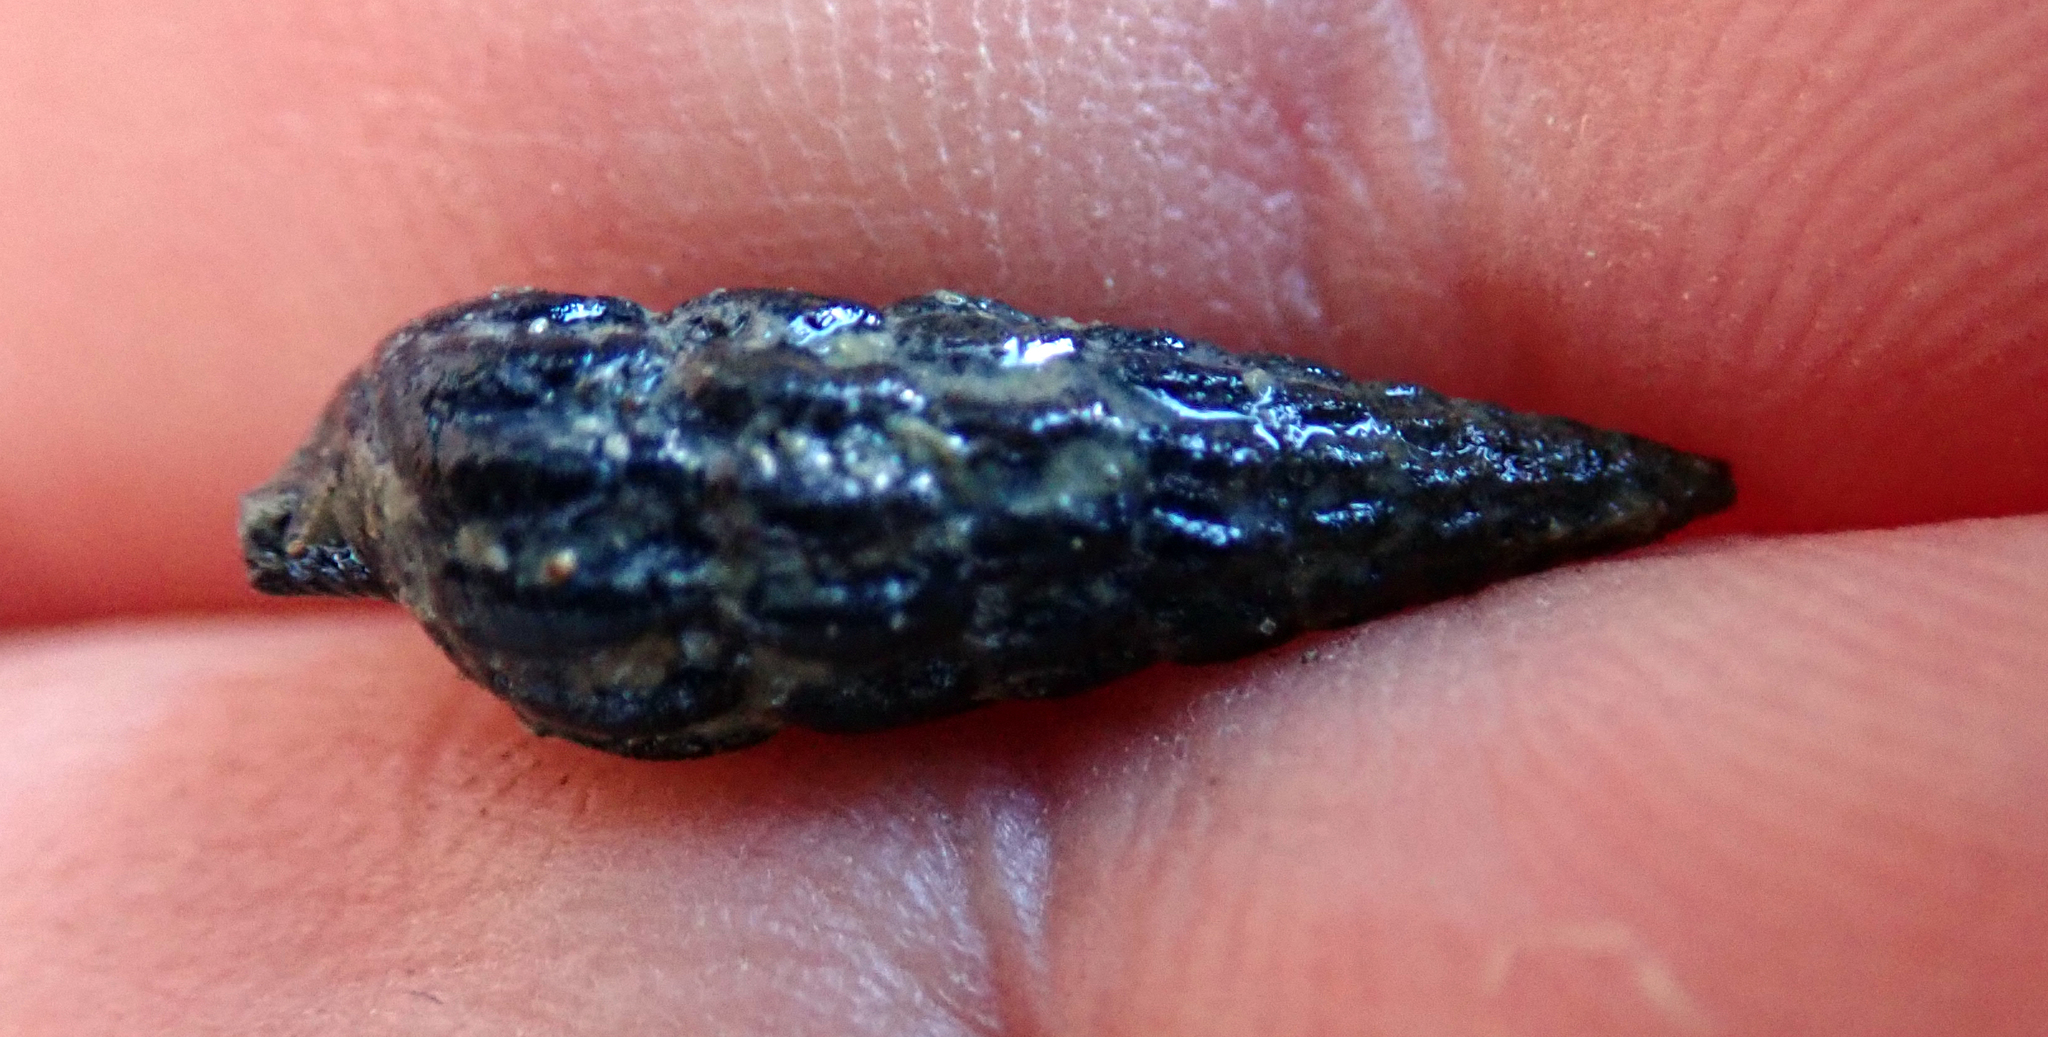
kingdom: Animalia
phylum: Mollusca
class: Gastropoda
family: Batillariidae
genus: Zeacumantus
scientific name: Zeacumantus subcarinatus
